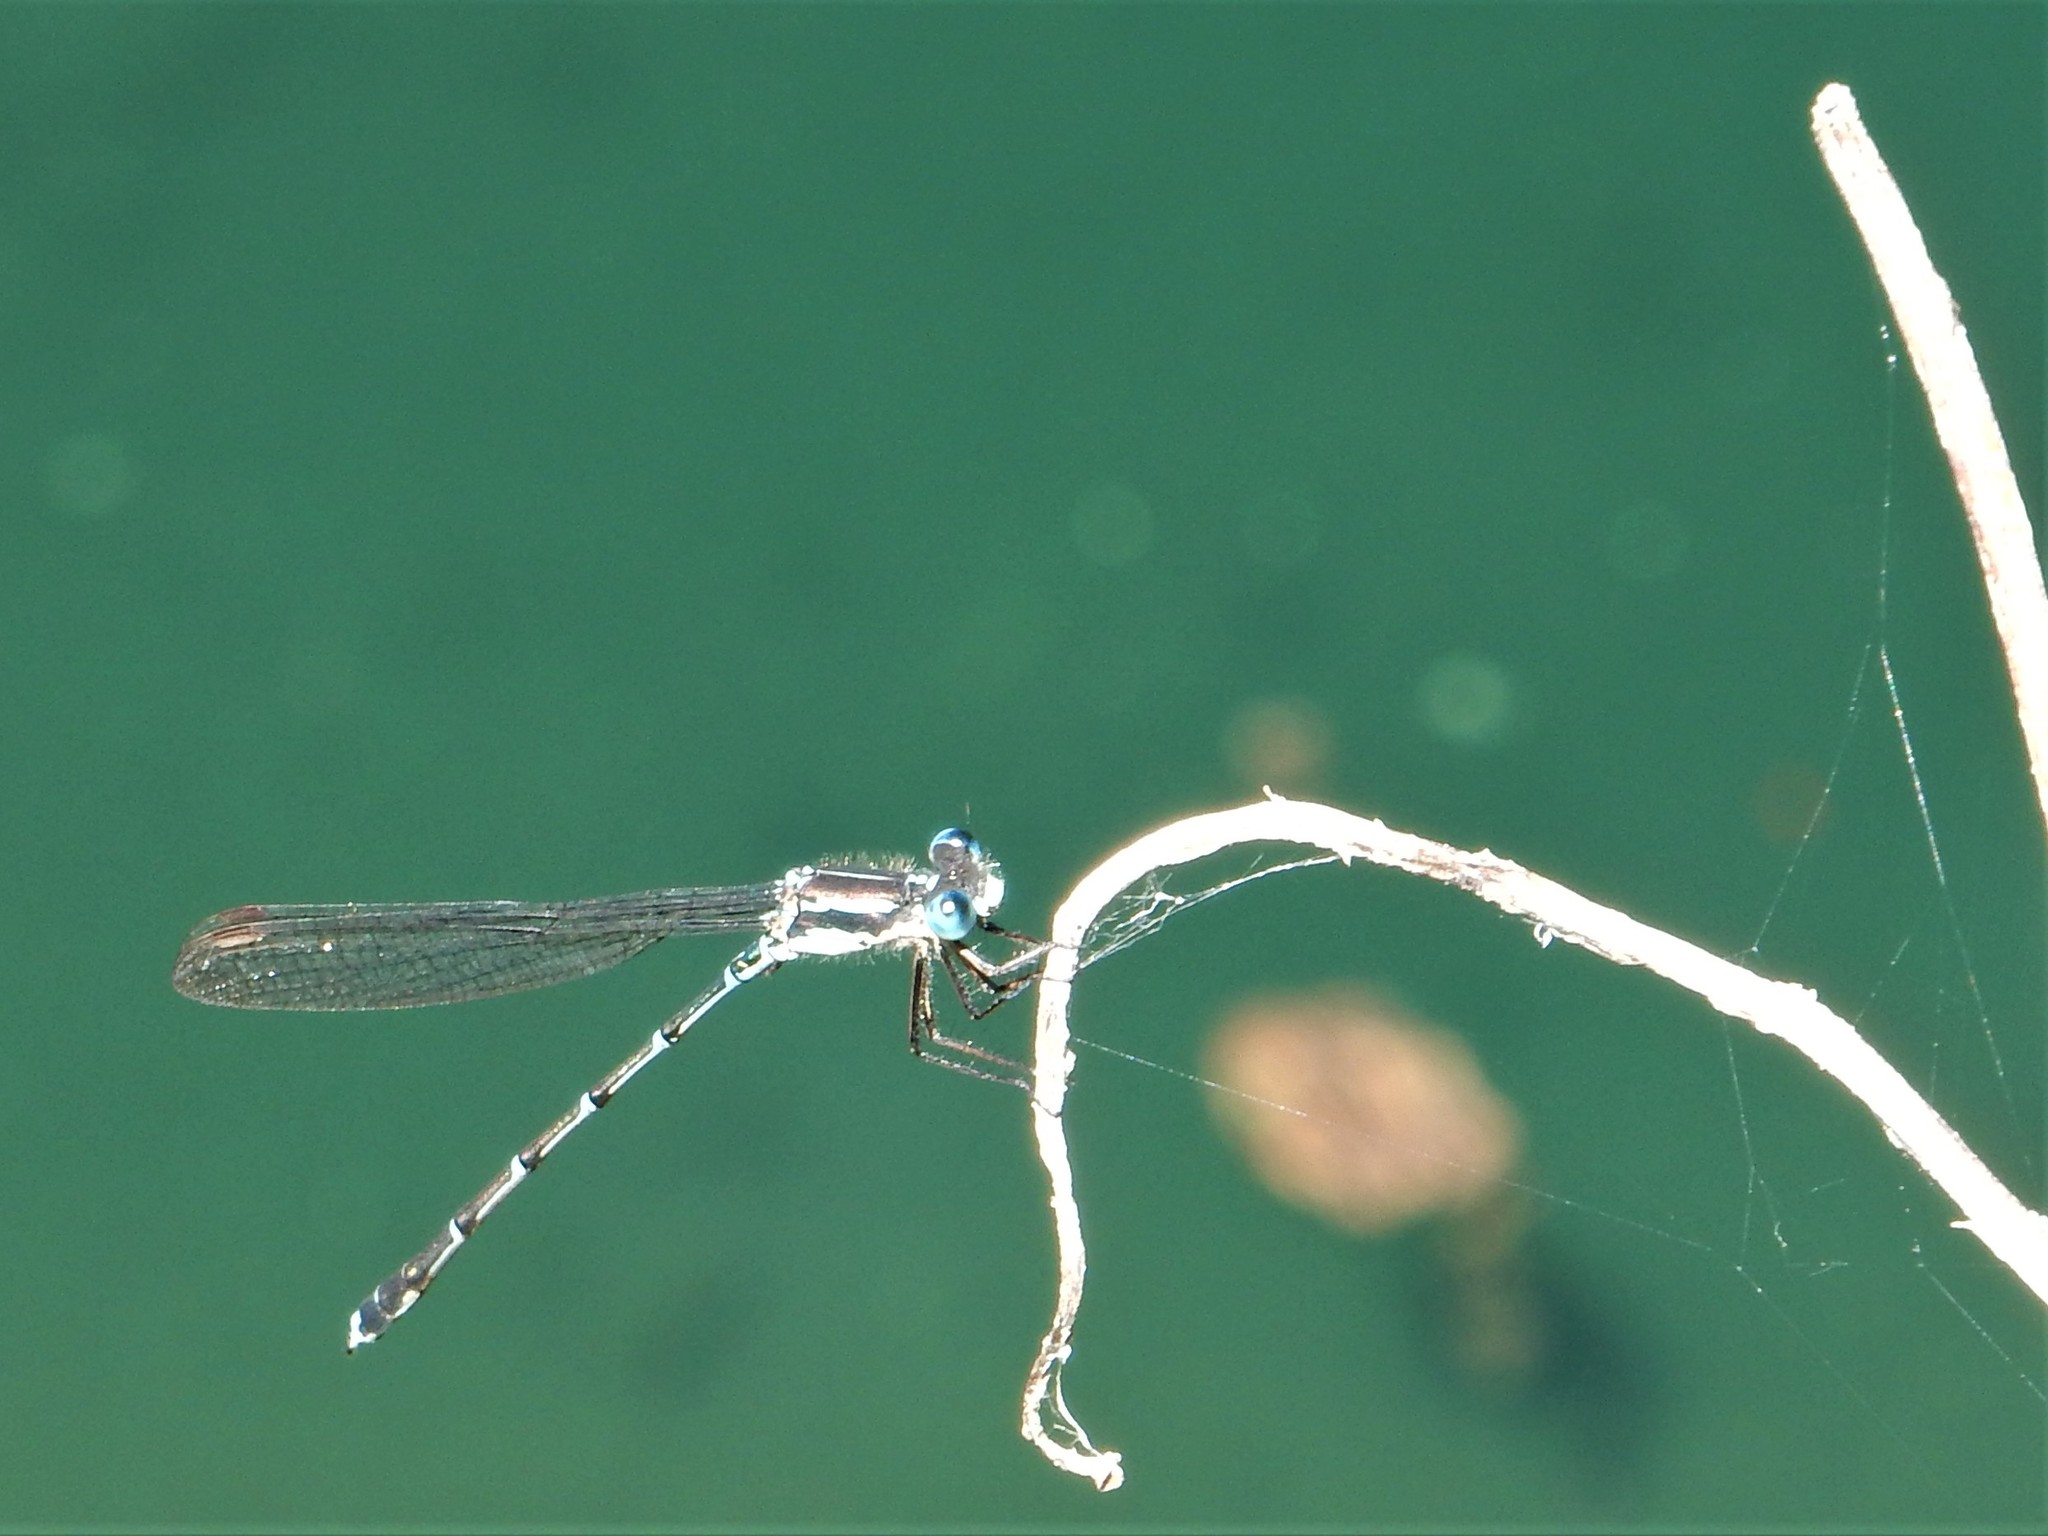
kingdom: Animalia
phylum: Arthropoda
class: Insecta
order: Odonata
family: Lestidae
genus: Austrolestes
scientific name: Austrolestes colensonis
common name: Blue damselfly
